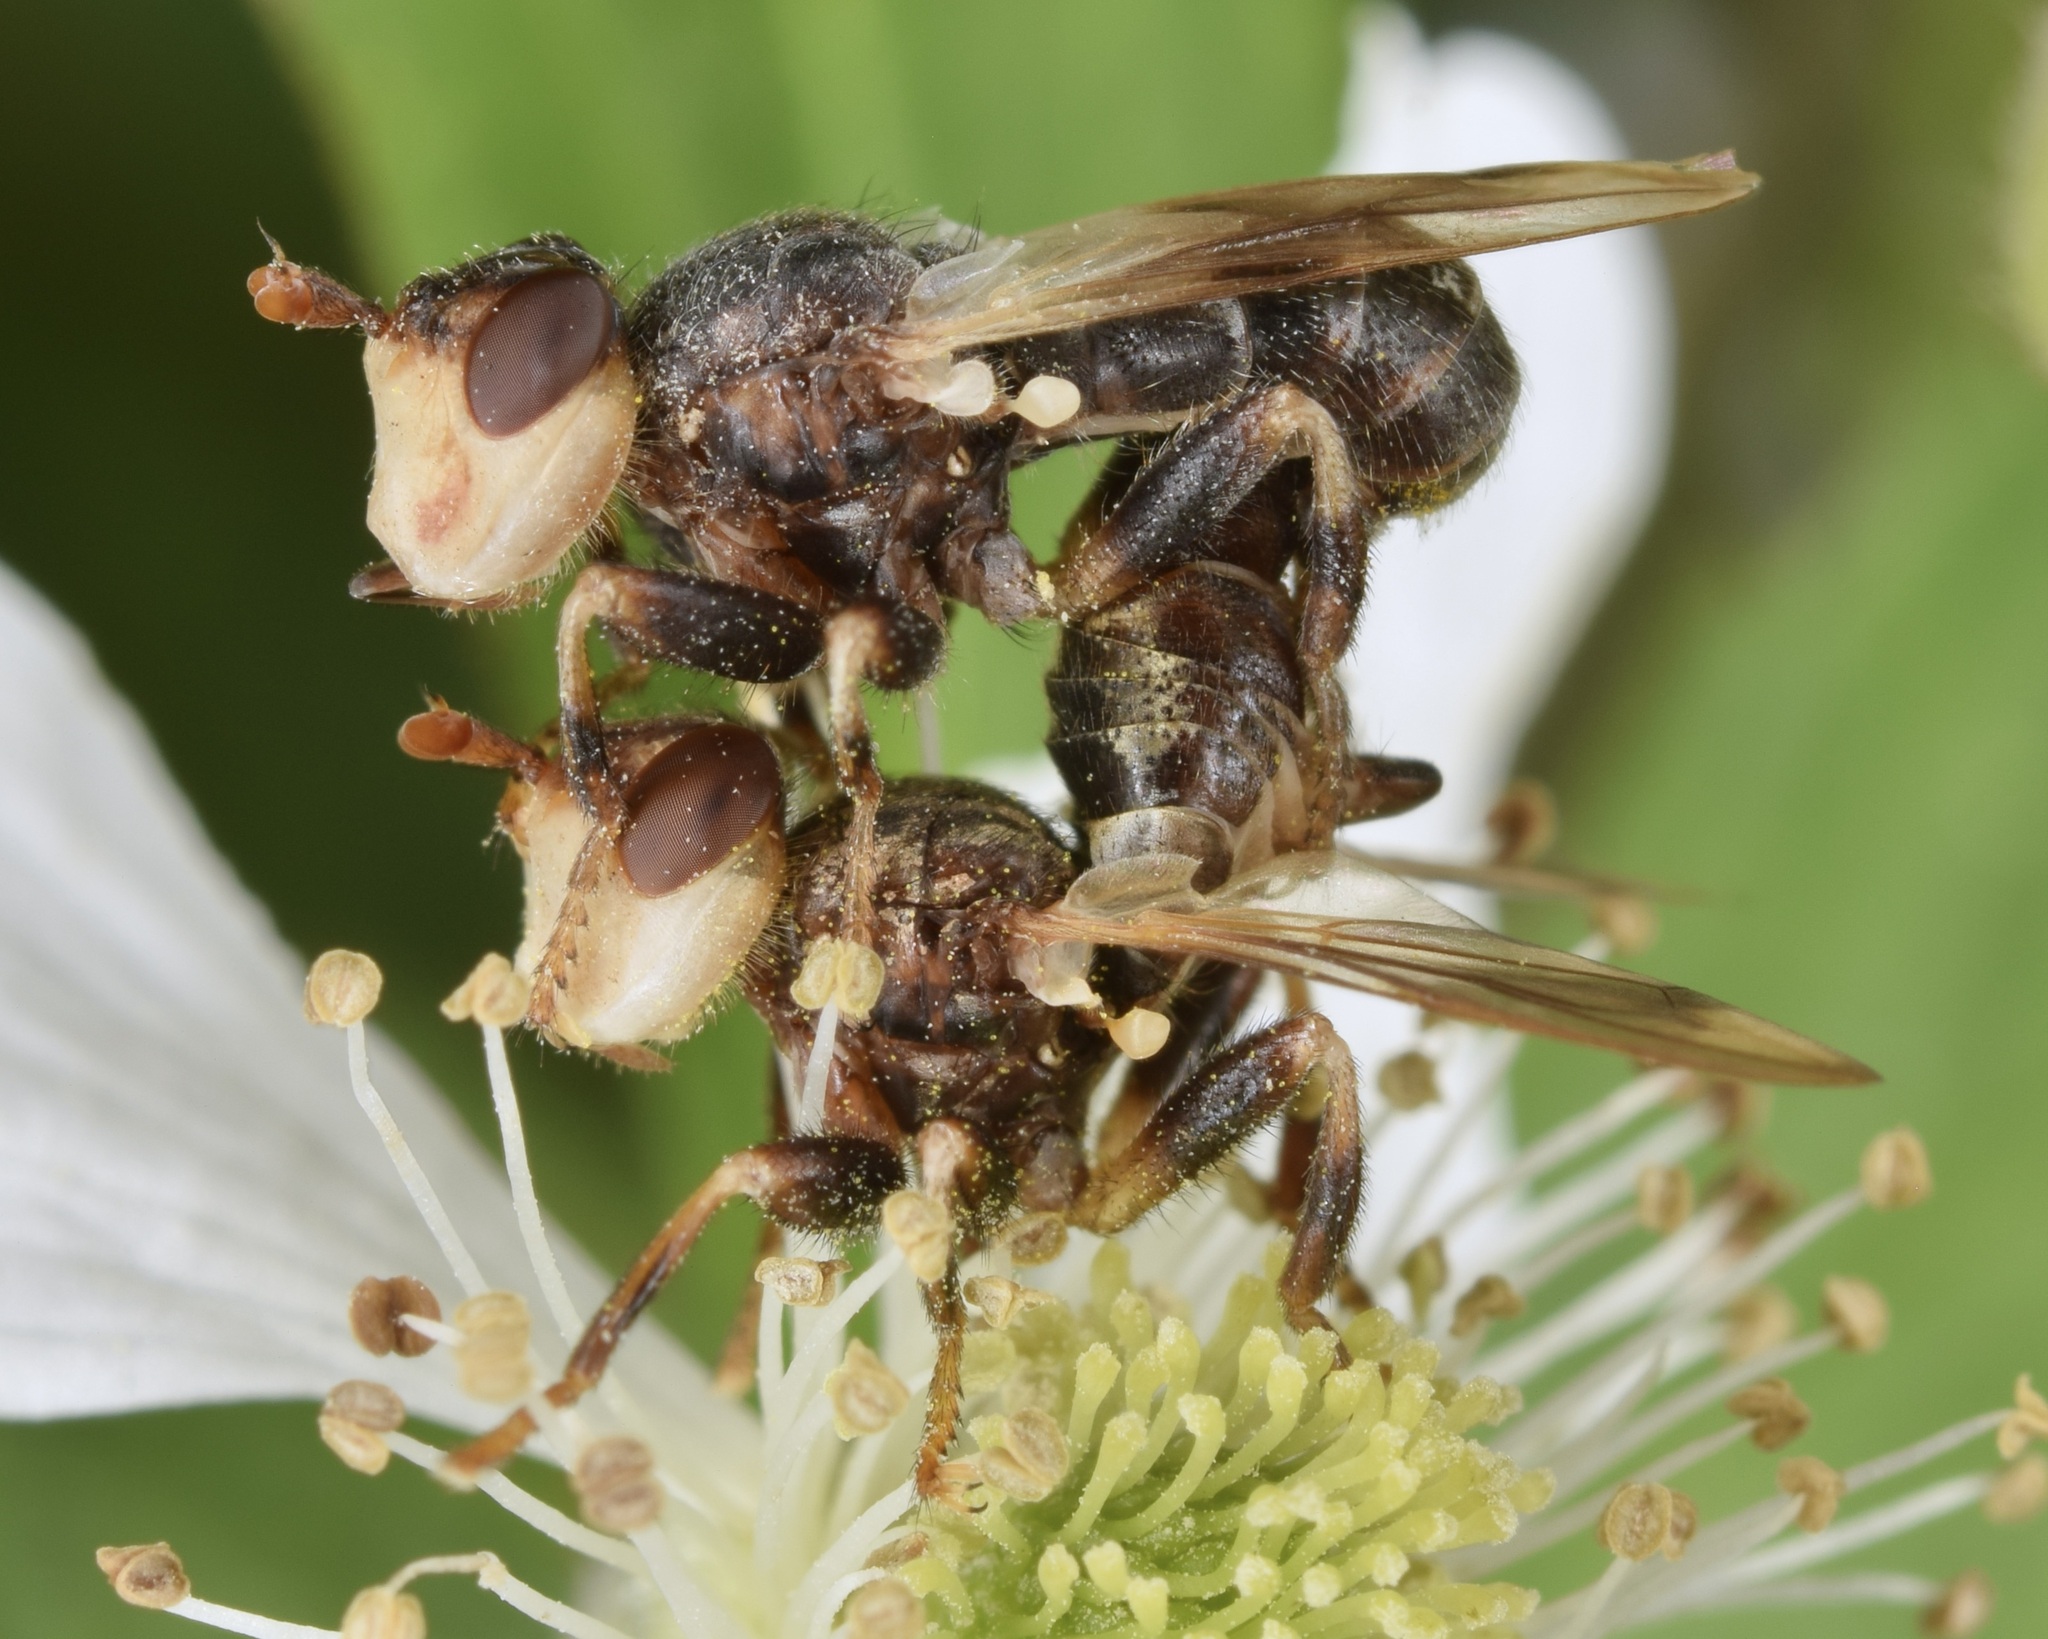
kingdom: Animalia
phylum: Arthropoda
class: Insecta
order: Diptera
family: Conopidae
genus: Myopa
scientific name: Myopa vesiculosa
